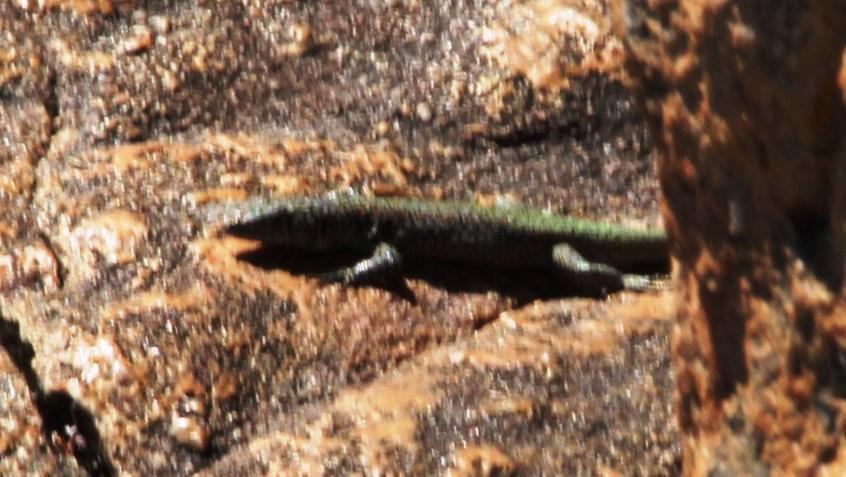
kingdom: Animalia
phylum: Chordata
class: Squamata
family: Lacertidae
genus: Australolacerta
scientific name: Australolacerta australis
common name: Southern rock lizard
